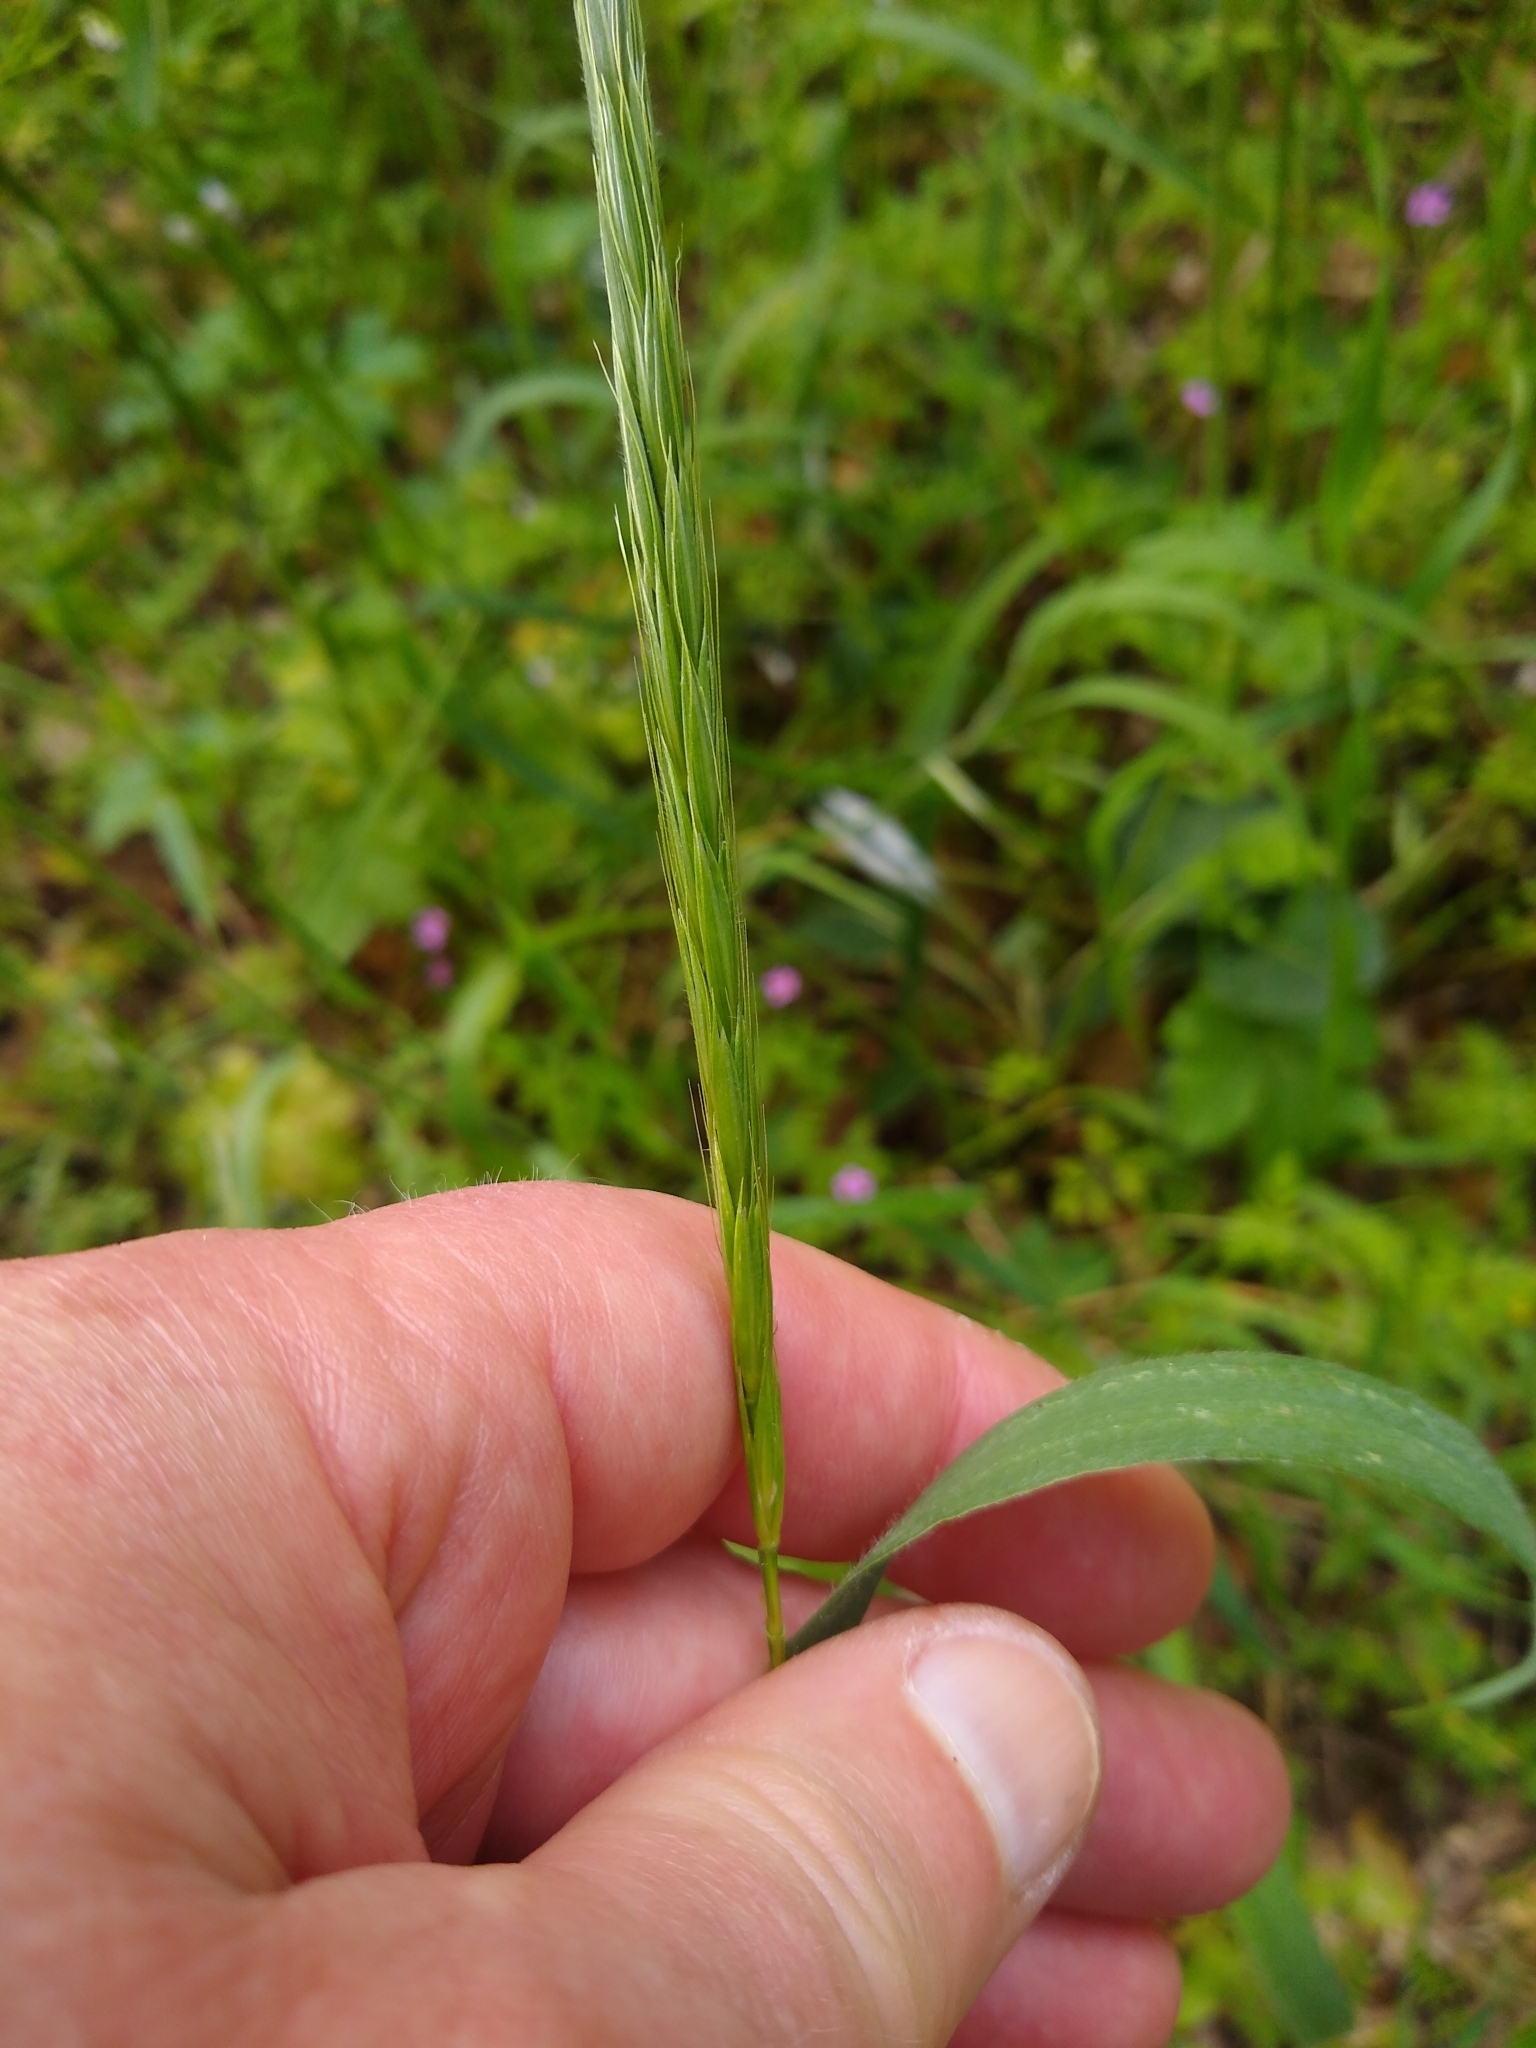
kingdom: Plantae
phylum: Tracheophyta
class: Liliopsida
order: Poales
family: Poaceae
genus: Elymus
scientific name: Elymus glaucus
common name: Blue wild rye
